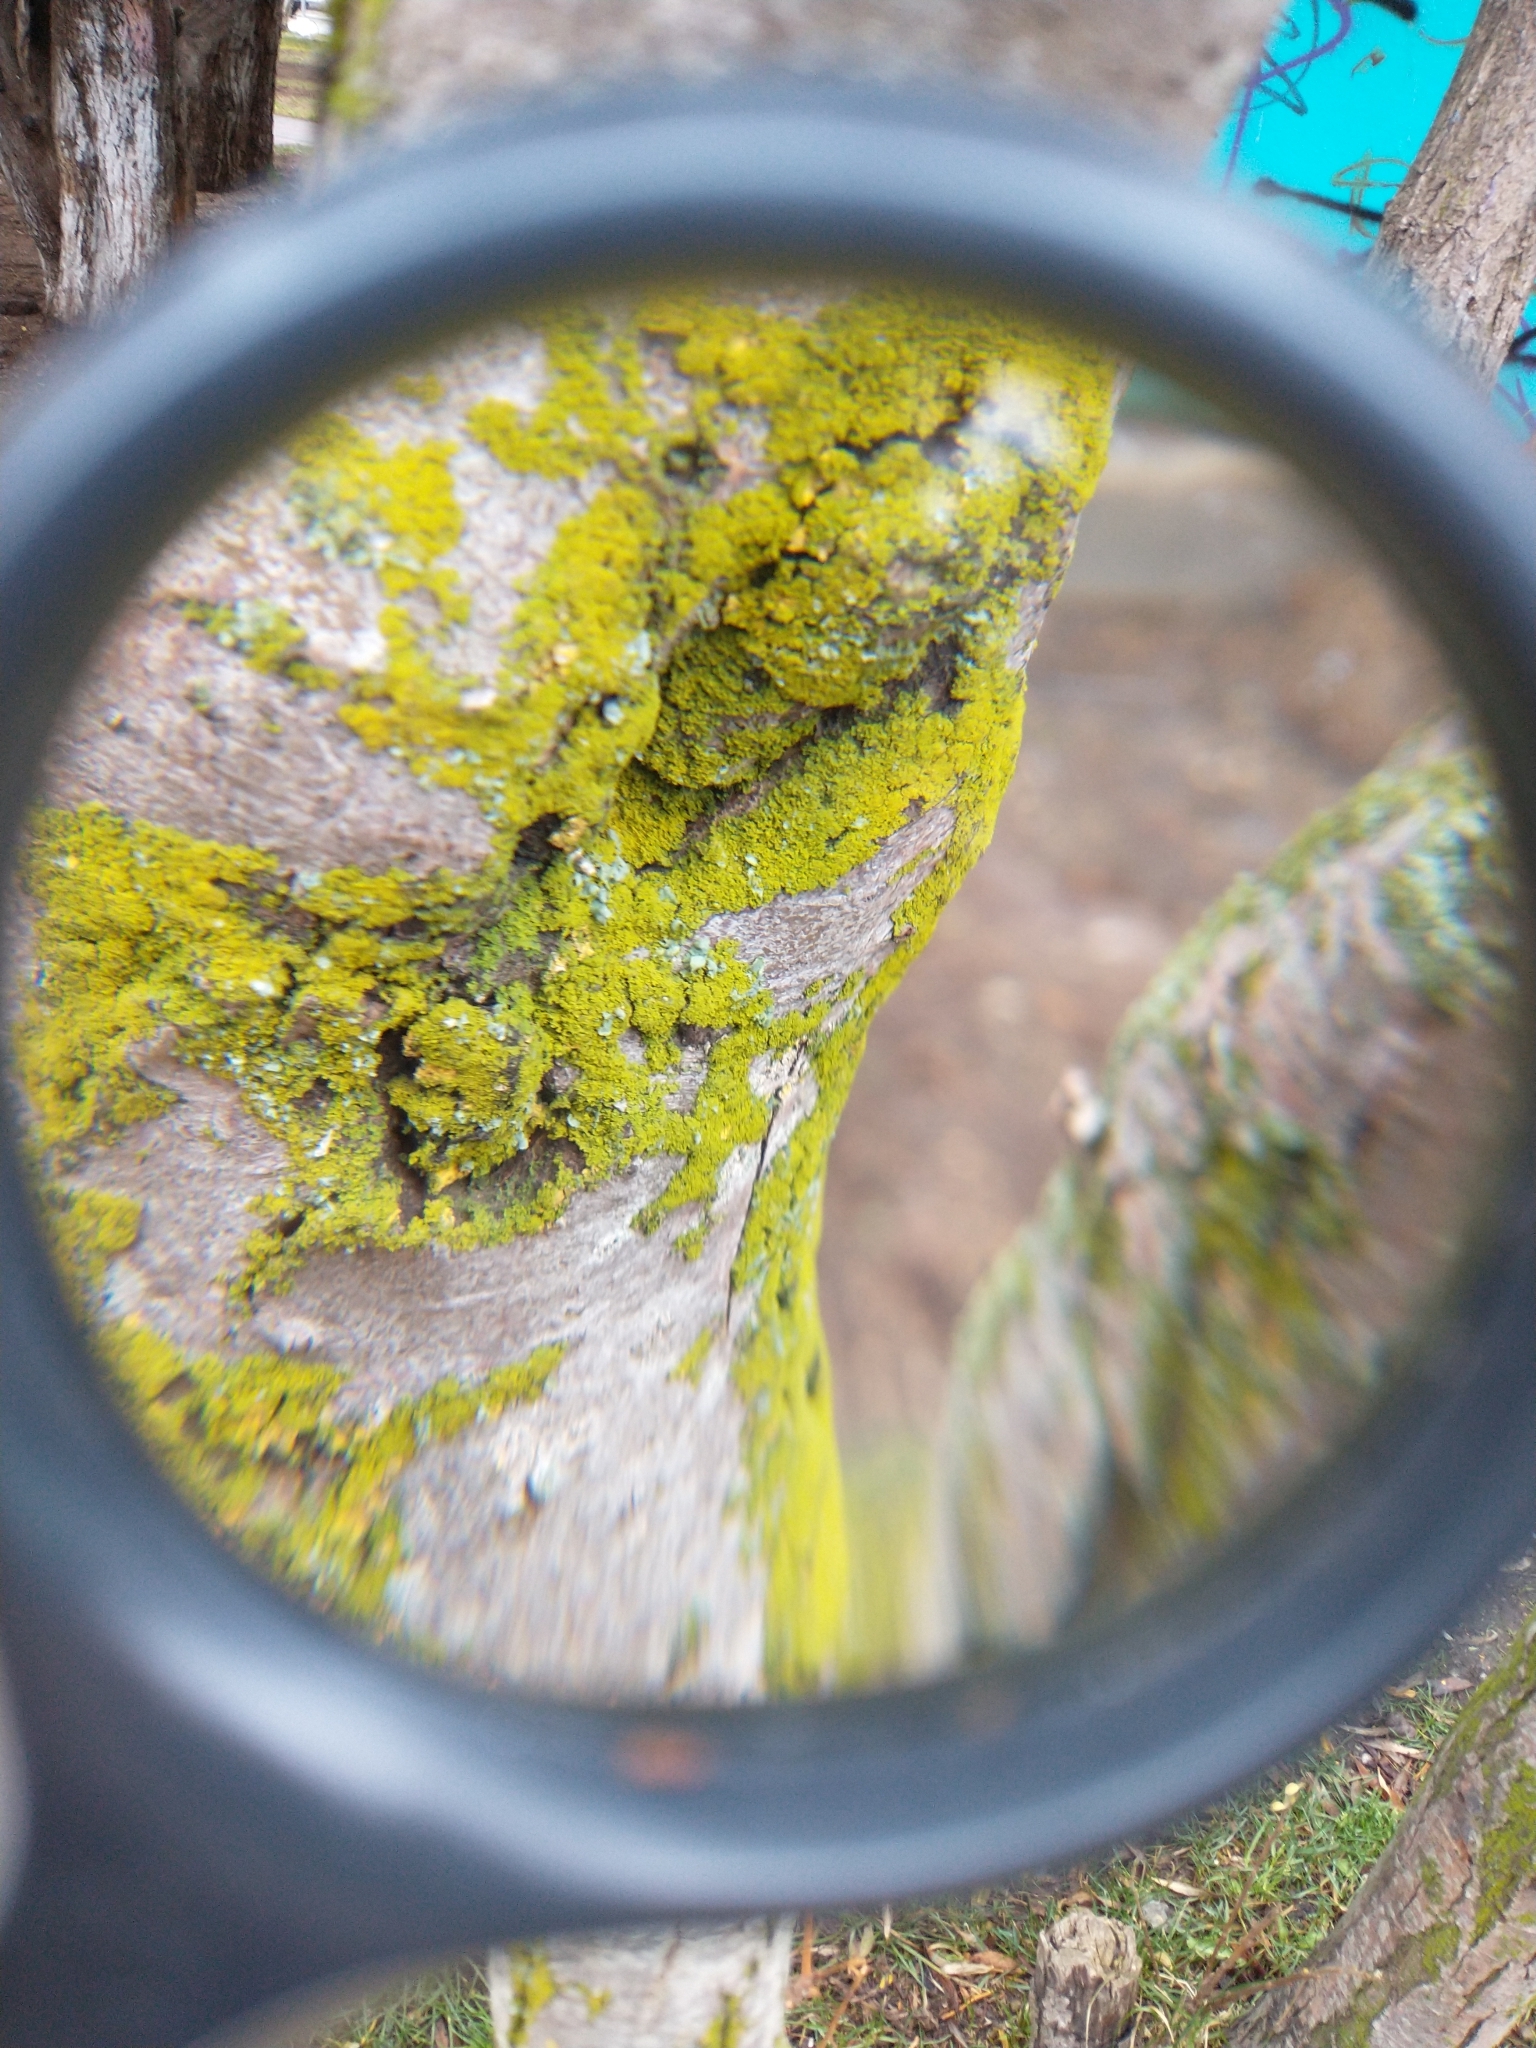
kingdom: Fungi
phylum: Ascomycota
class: Lecanoromycetes
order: Teloschistales
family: Teloschistaceae
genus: Polycauliona
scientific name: Polycauliona candelaria
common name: Shrubby sunburst lichen
